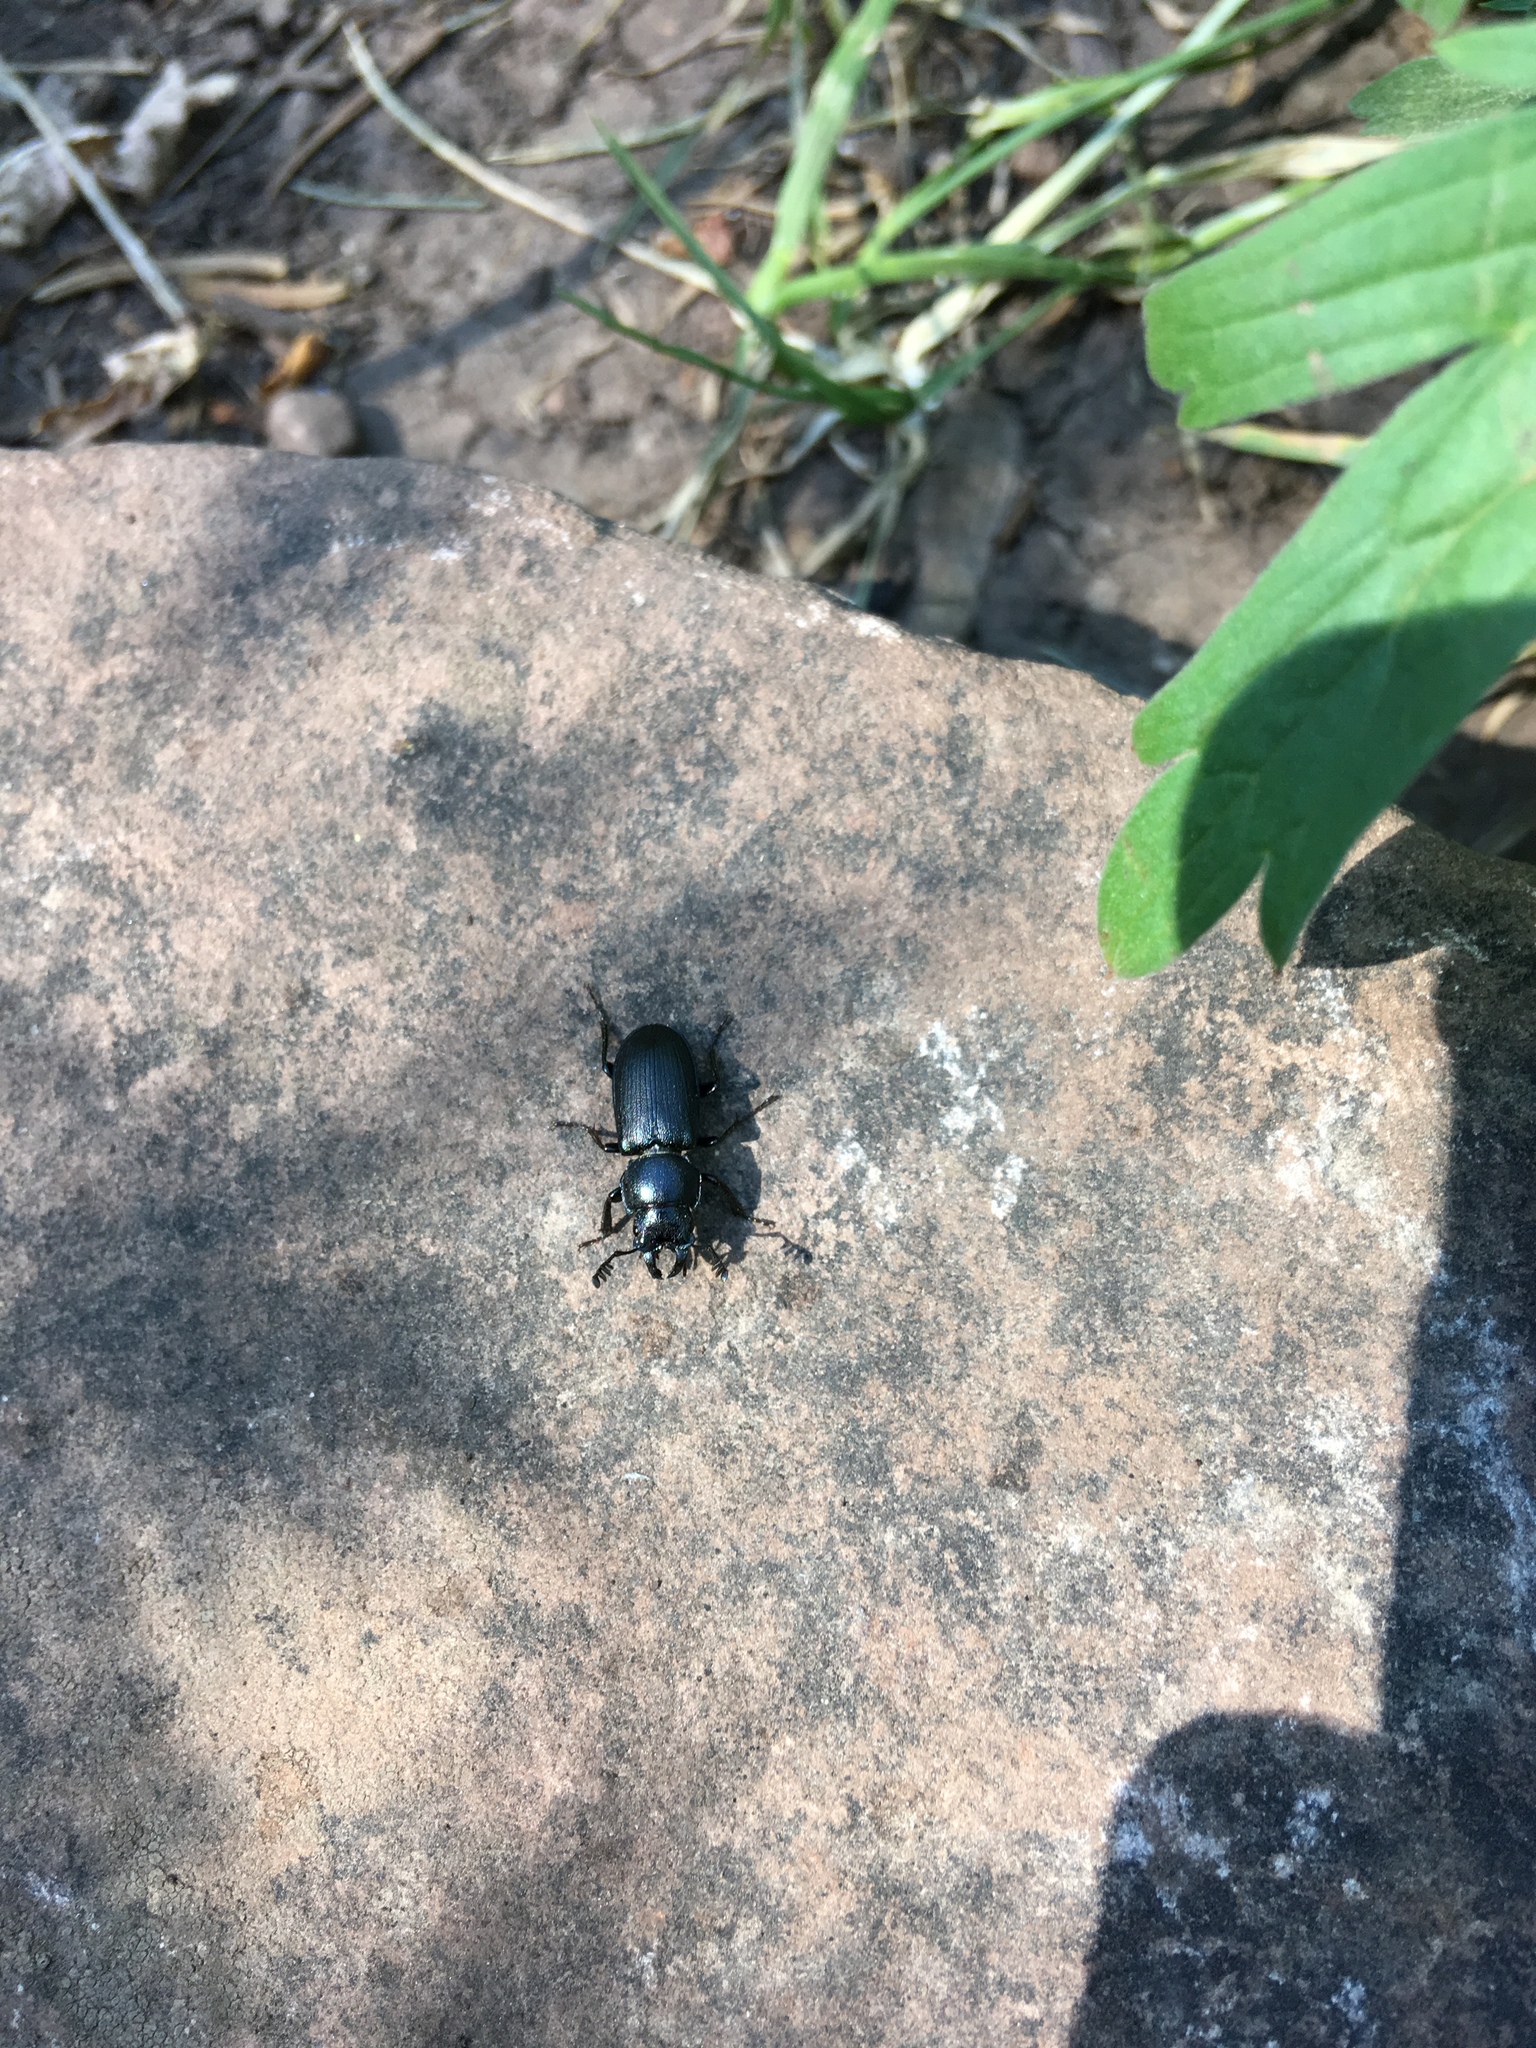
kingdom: Animalia
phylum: Arthropoda
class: Insecta
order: Coleoptera
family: Lucanidae
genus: Platycerus
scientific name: Platycerus marginalis
